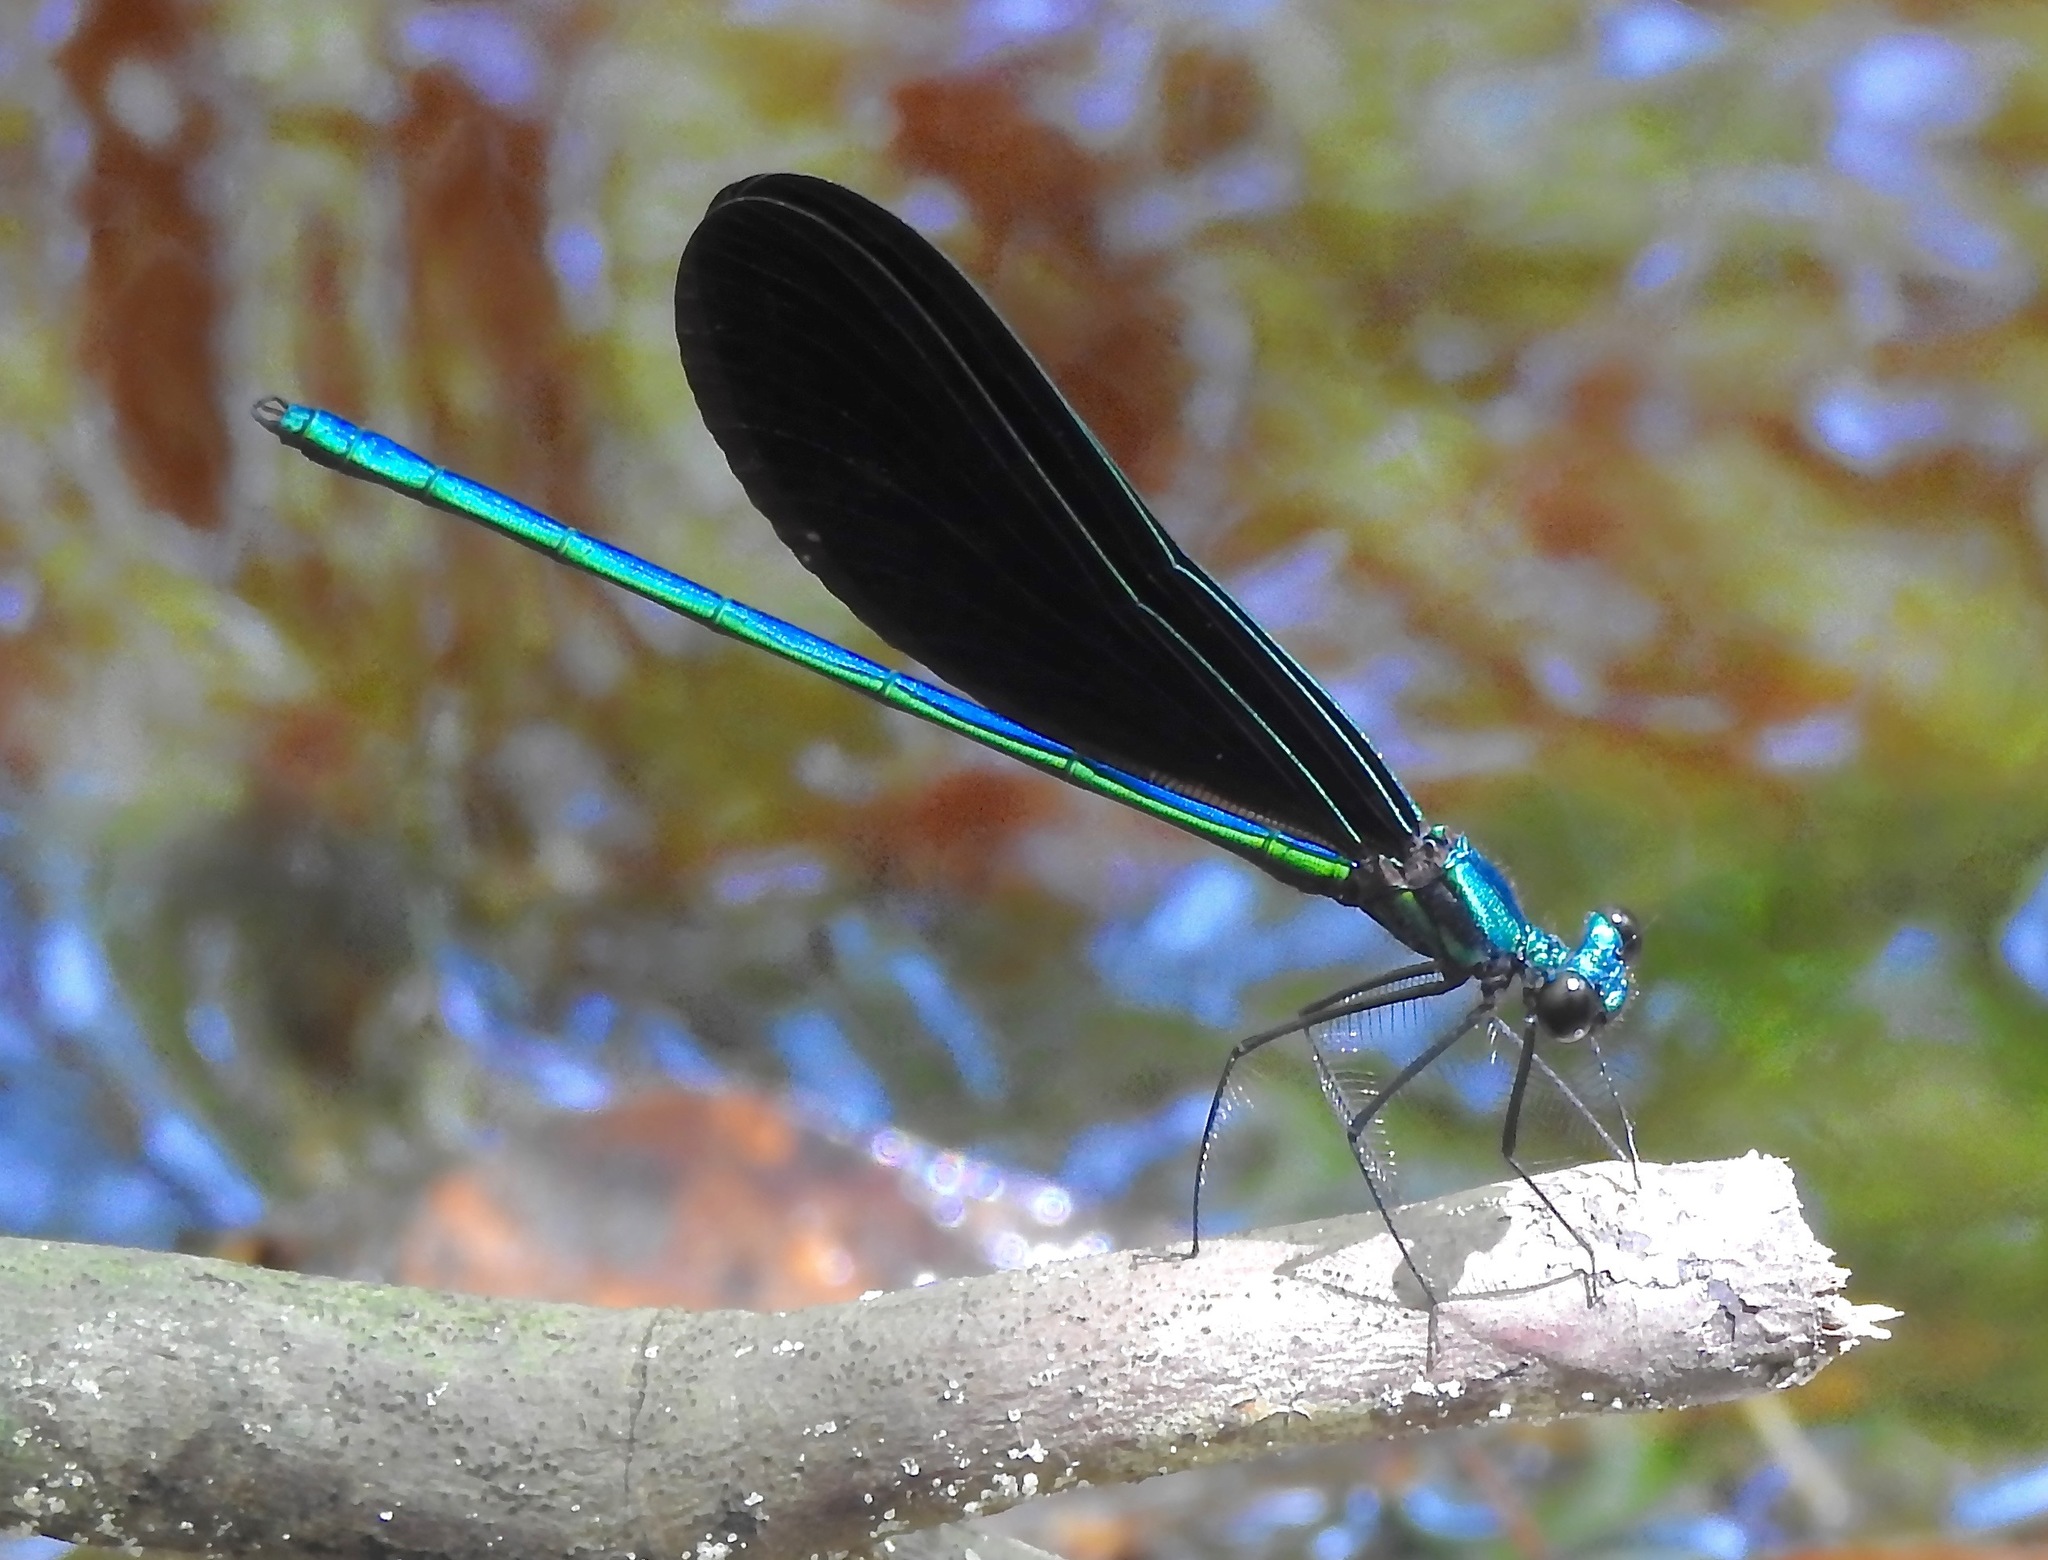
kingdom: Animalia
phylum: Arthropoda
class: Insecta
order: Odonata
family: Calopterygidae
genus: Calopteryx
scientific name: Calopteryx maculata
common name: Ebony jewelwing
